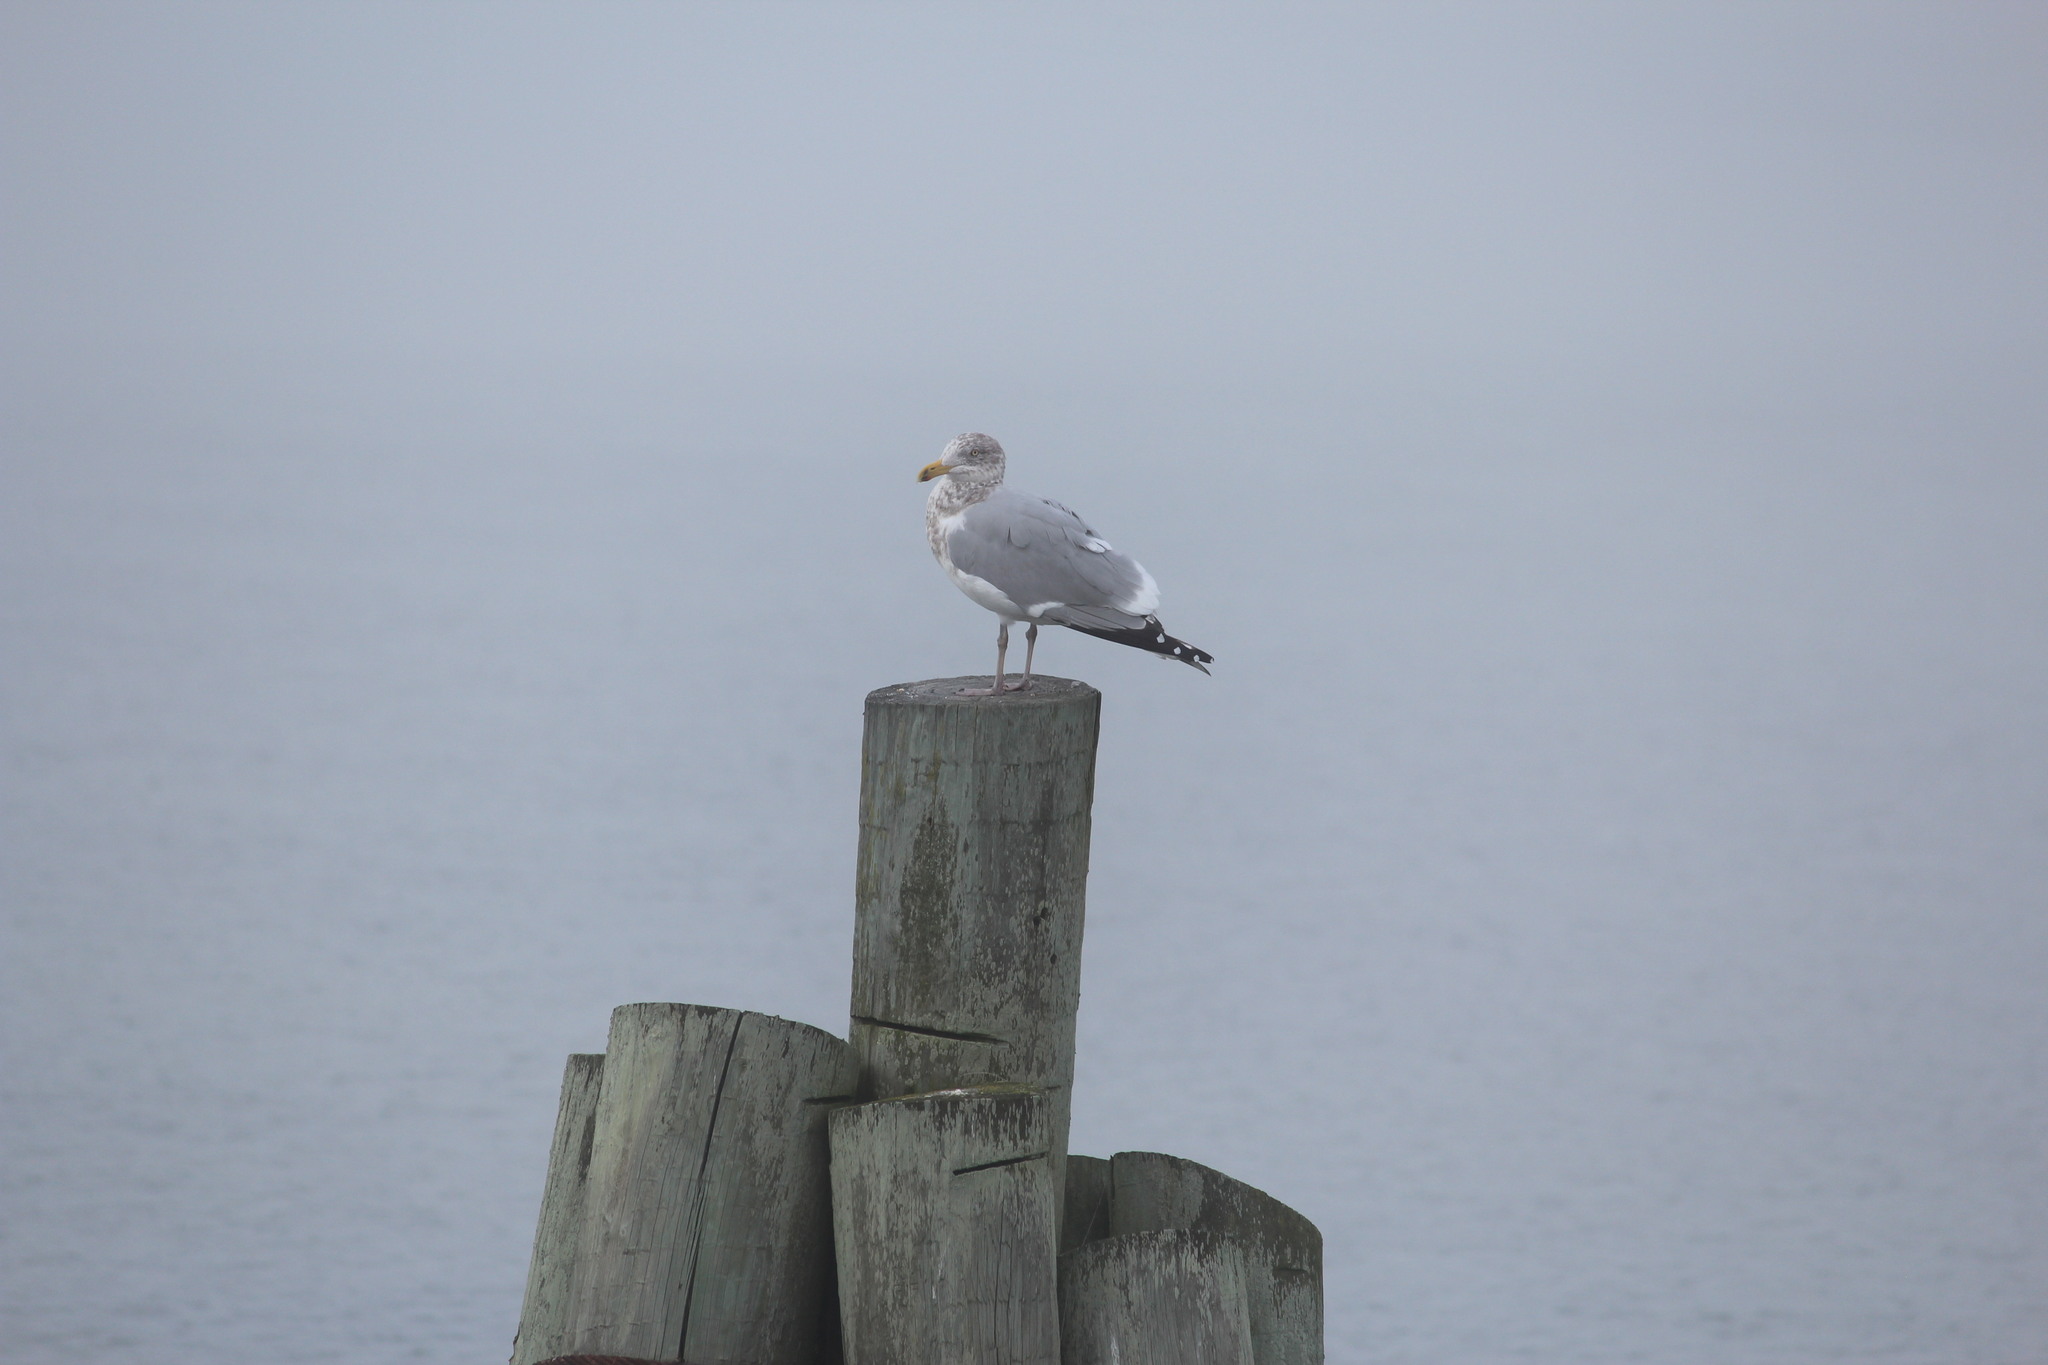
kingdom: Animalia
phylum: Chordata
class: Aves
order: Charadriiformes
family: Laridae
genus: Larus
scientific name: Larus argentatus
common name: Herring gull
